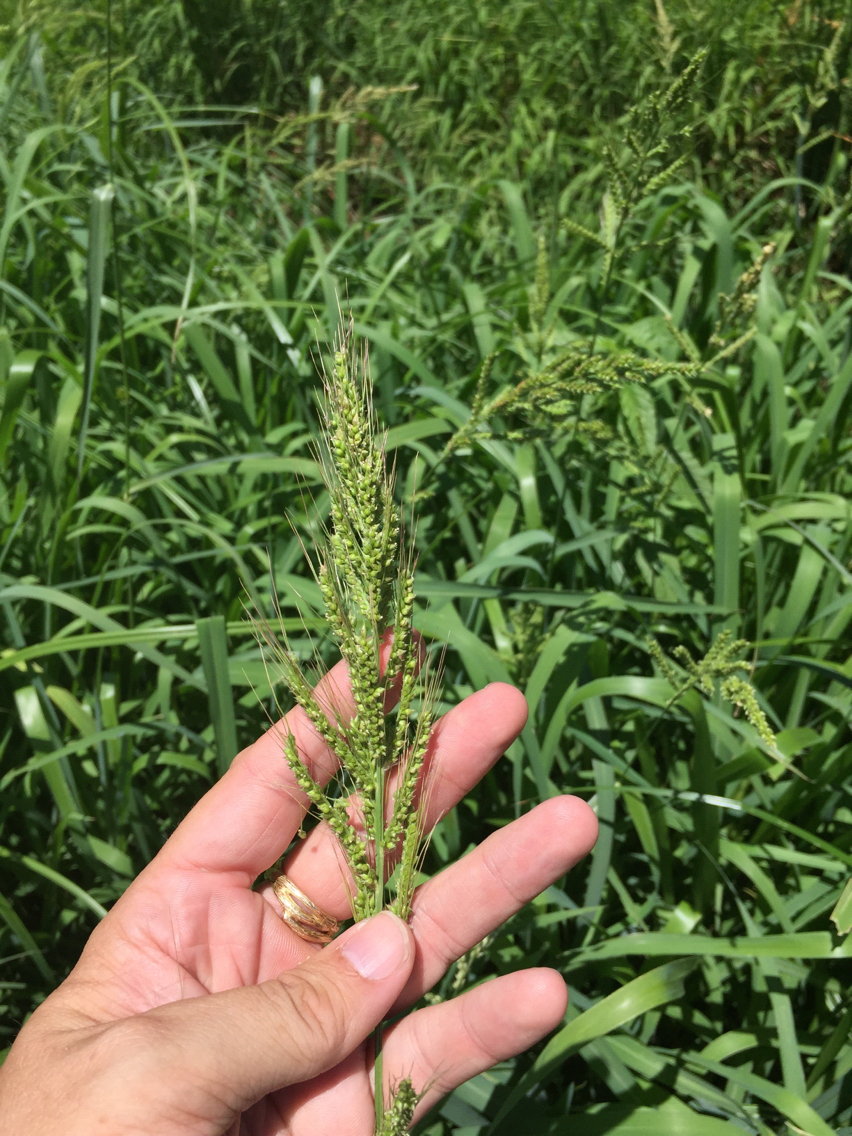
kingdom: Plantae
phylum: Tracheophyta
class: Liliopsida
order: Poales
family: Poaceae
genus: Echinochloa
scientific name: Echinochloa crus-galli
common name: Cockspur
